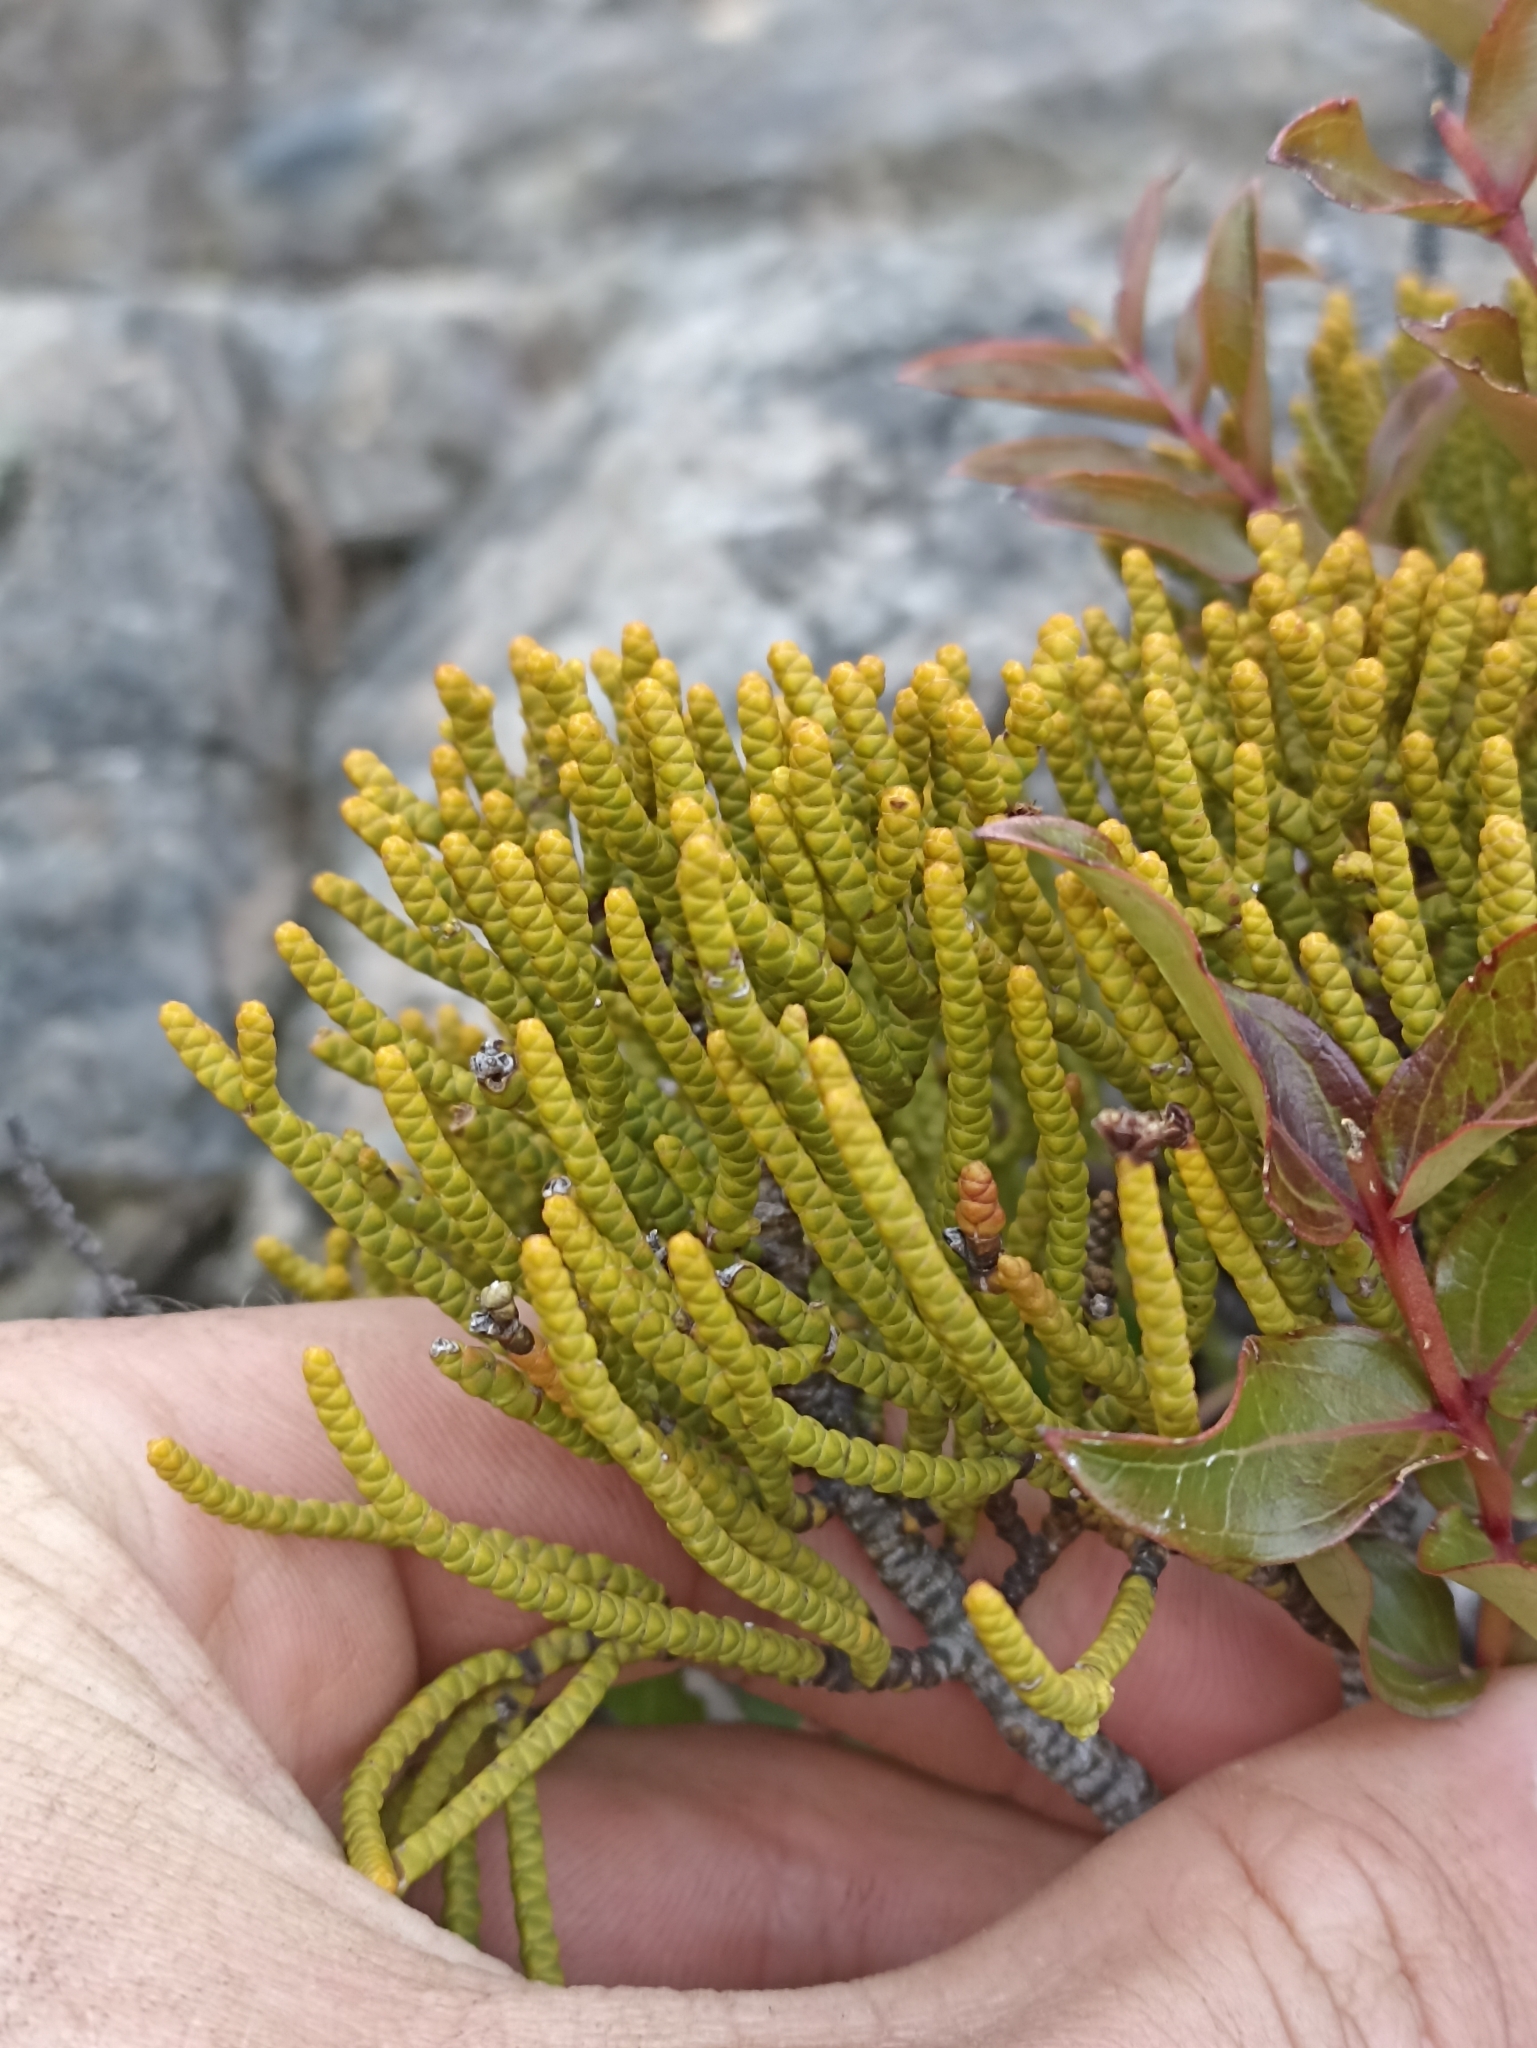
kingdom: Plantae
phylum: Tracheophyta
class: Magnoliopsida
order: Lamiales
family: Plantaginaceae
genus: Veronica
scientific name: Veronica hectorii
